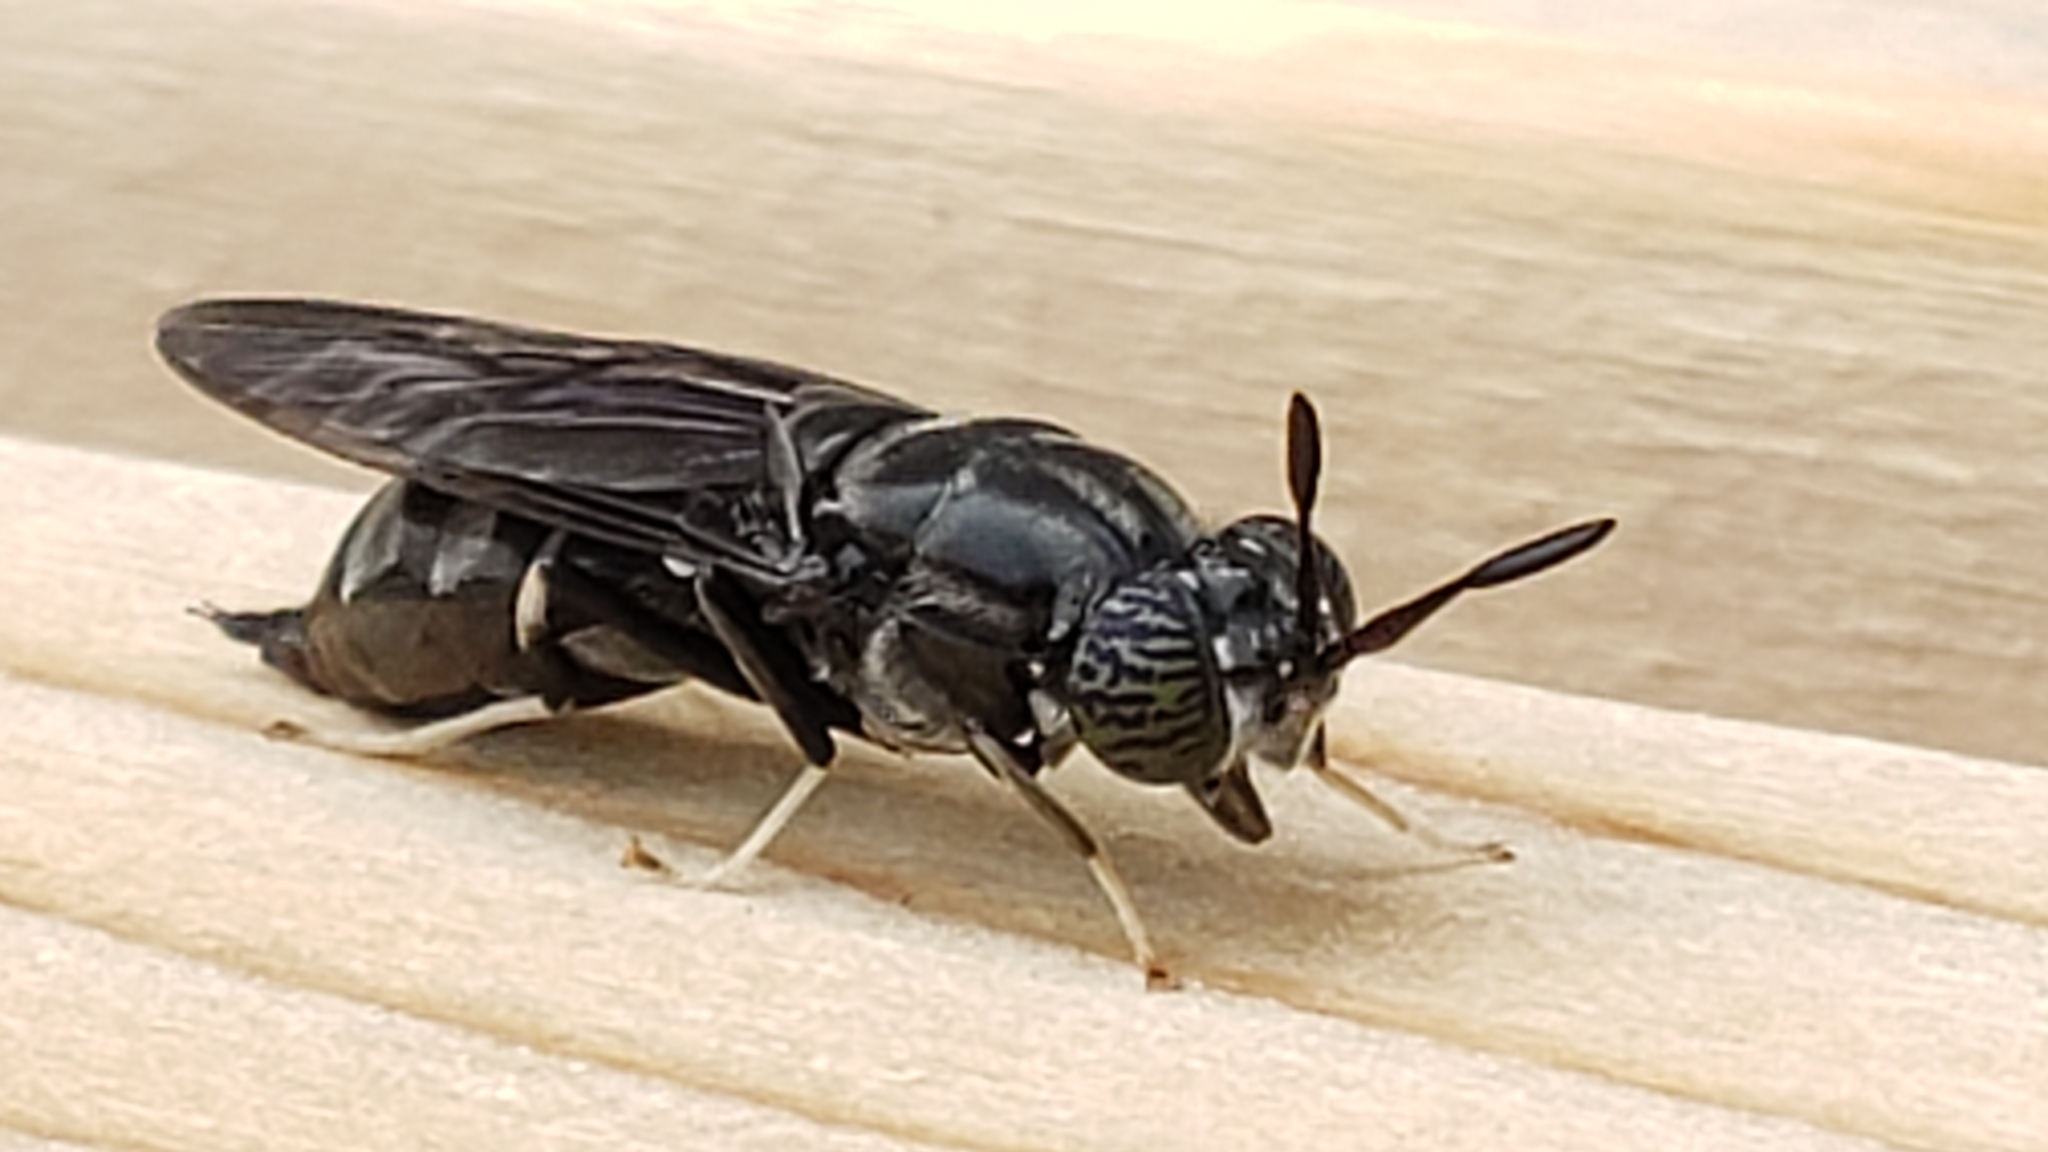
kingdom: Animalia
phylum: Arthropoda
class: Insecta
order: Diptera
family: Stratiomyidae
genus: Hermetia
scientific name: Hermetia illucens
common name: Black soldier fly
